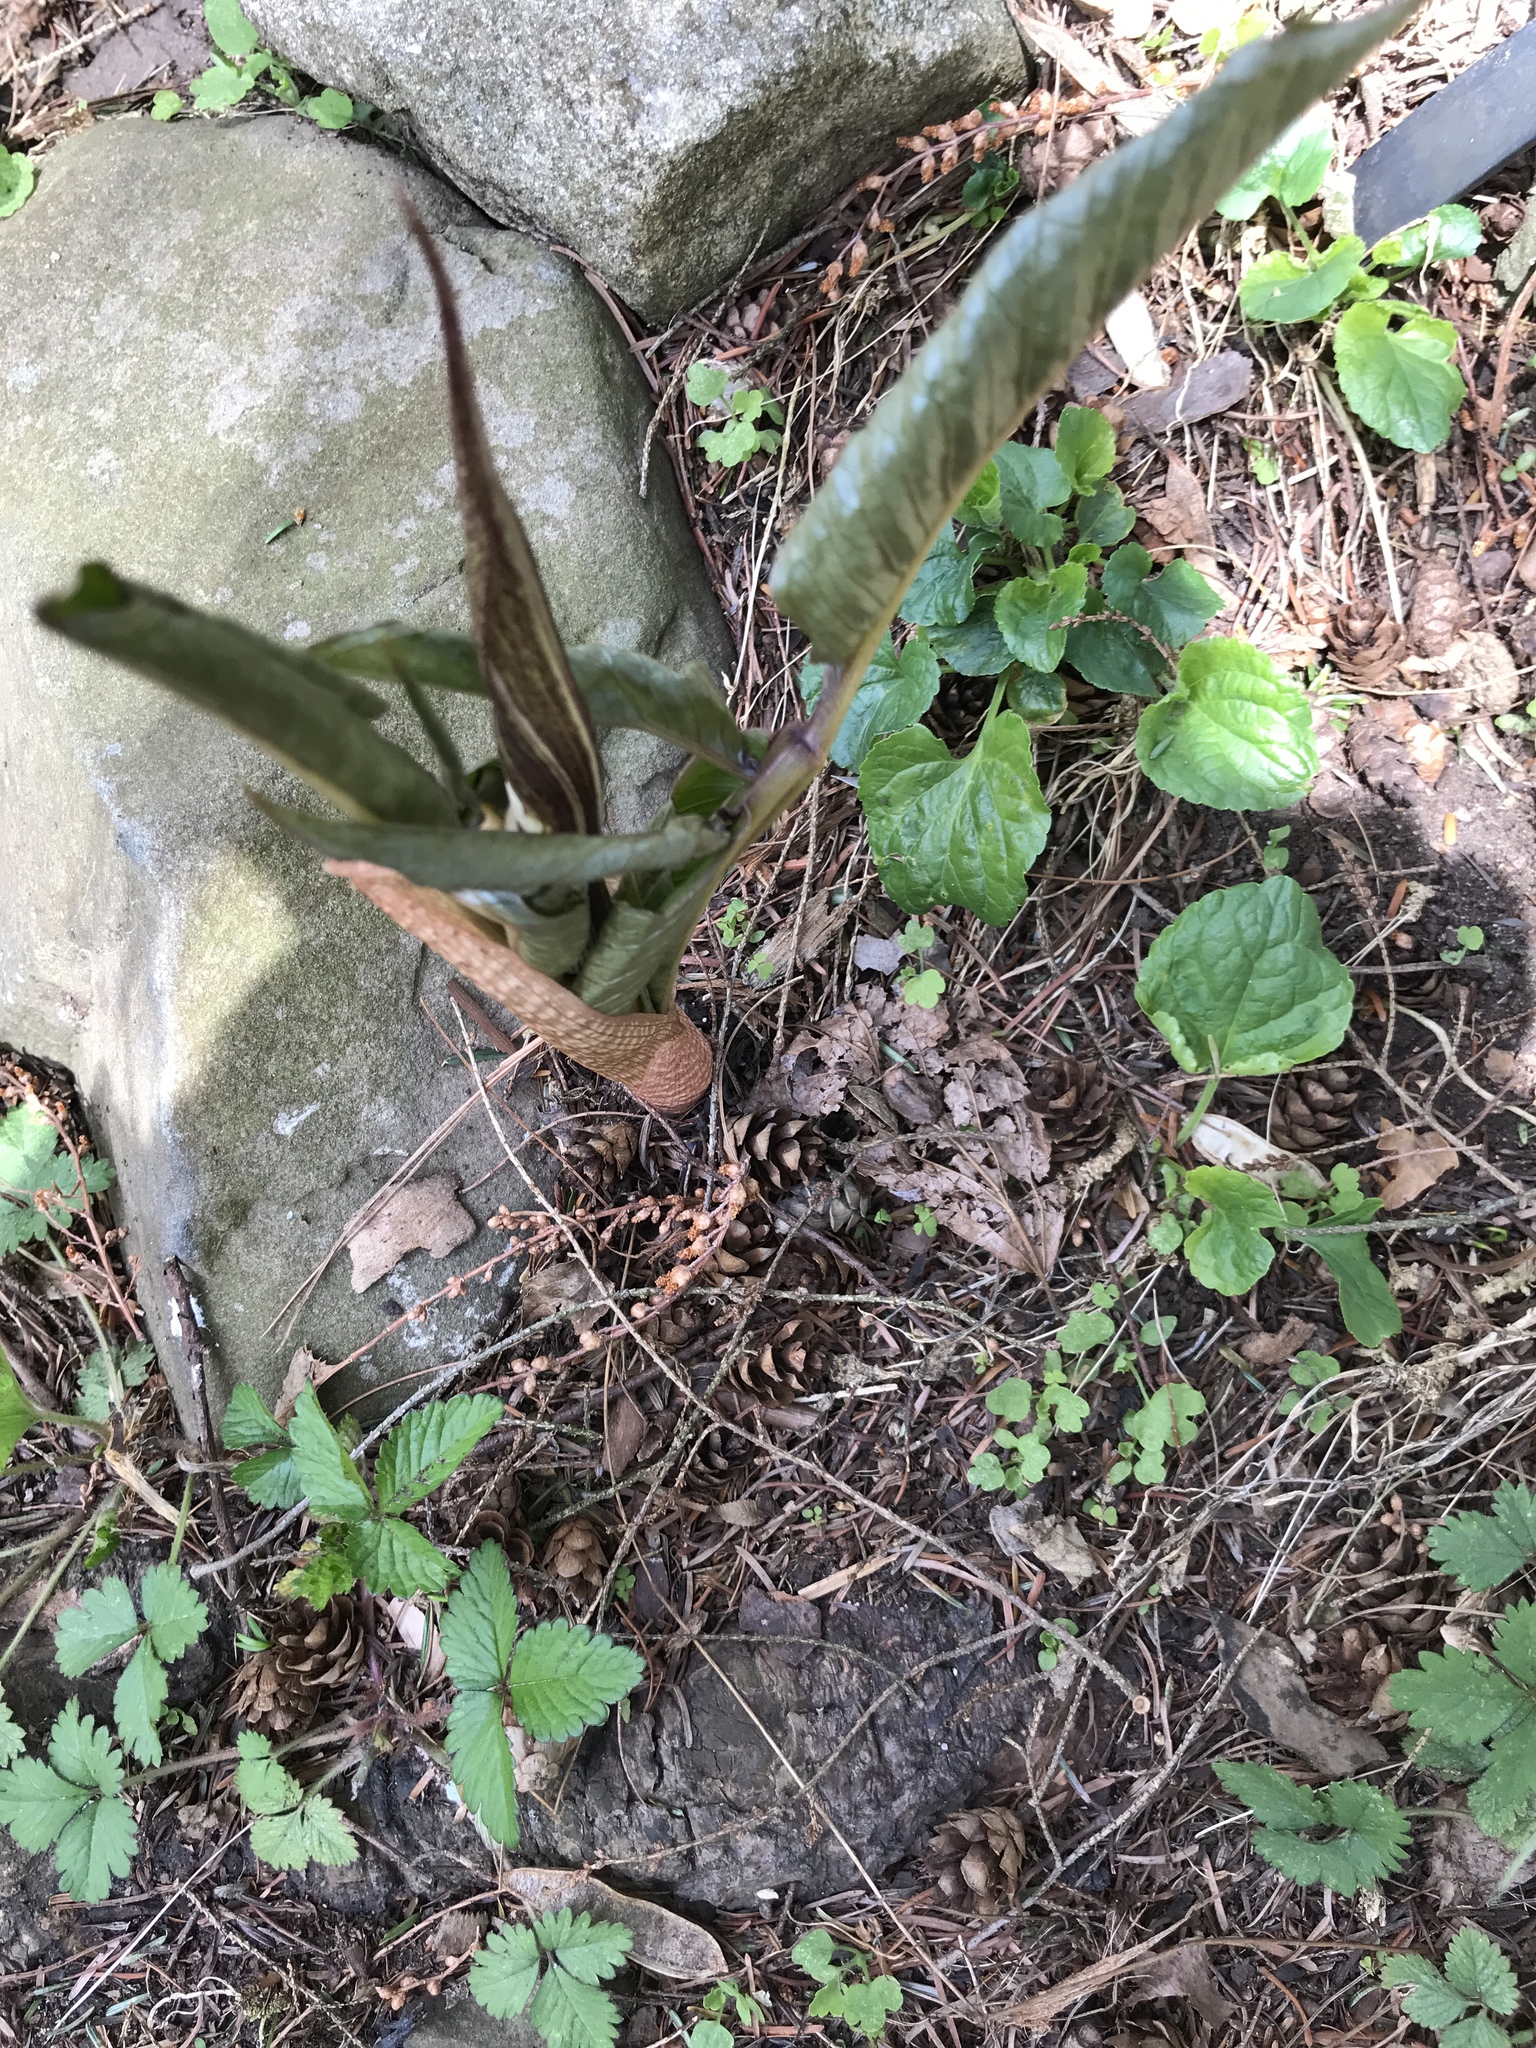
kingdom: Plantae
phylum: Tracheophyta
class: Liliopsida
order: Alismatales
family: Araceae
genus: Arisaema
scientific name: Arisaema triphyllum
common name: Jack-in-the-pulpit
